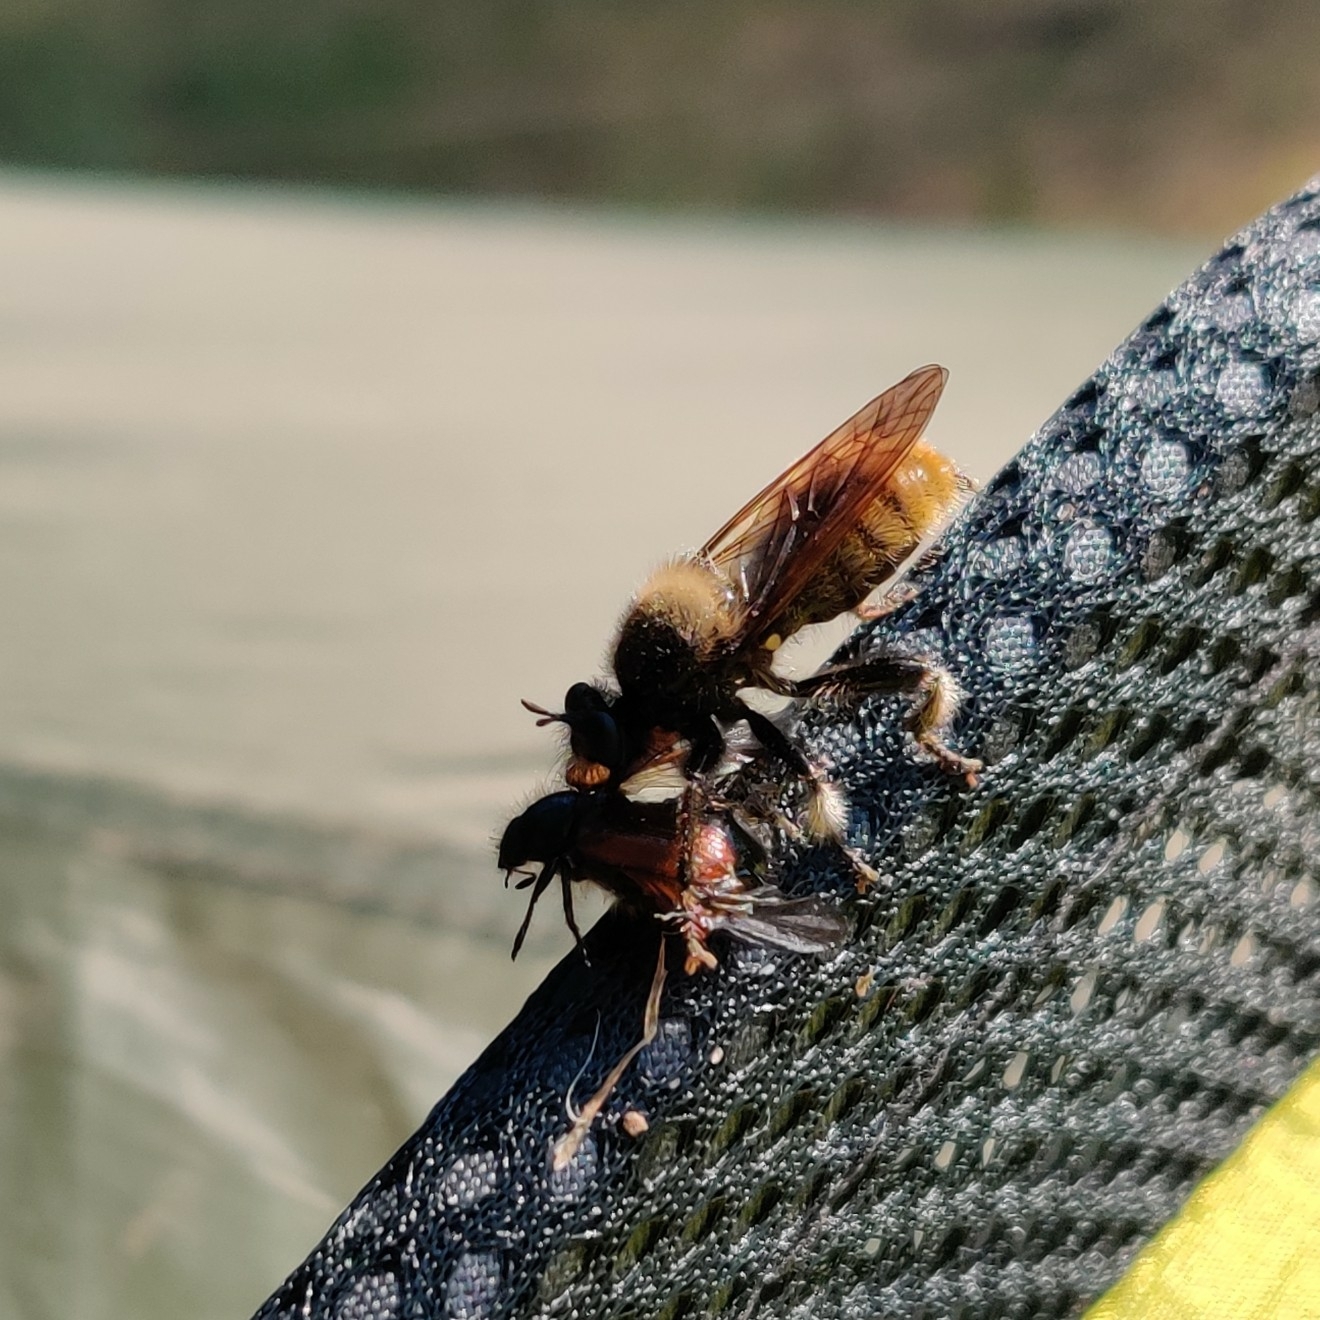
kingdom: Animalia
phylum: Arthropoda
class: Insecta
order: Diptera
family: Asilidae
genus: Laphria
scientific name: Laphria flava
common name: Bumblebee robberfly
